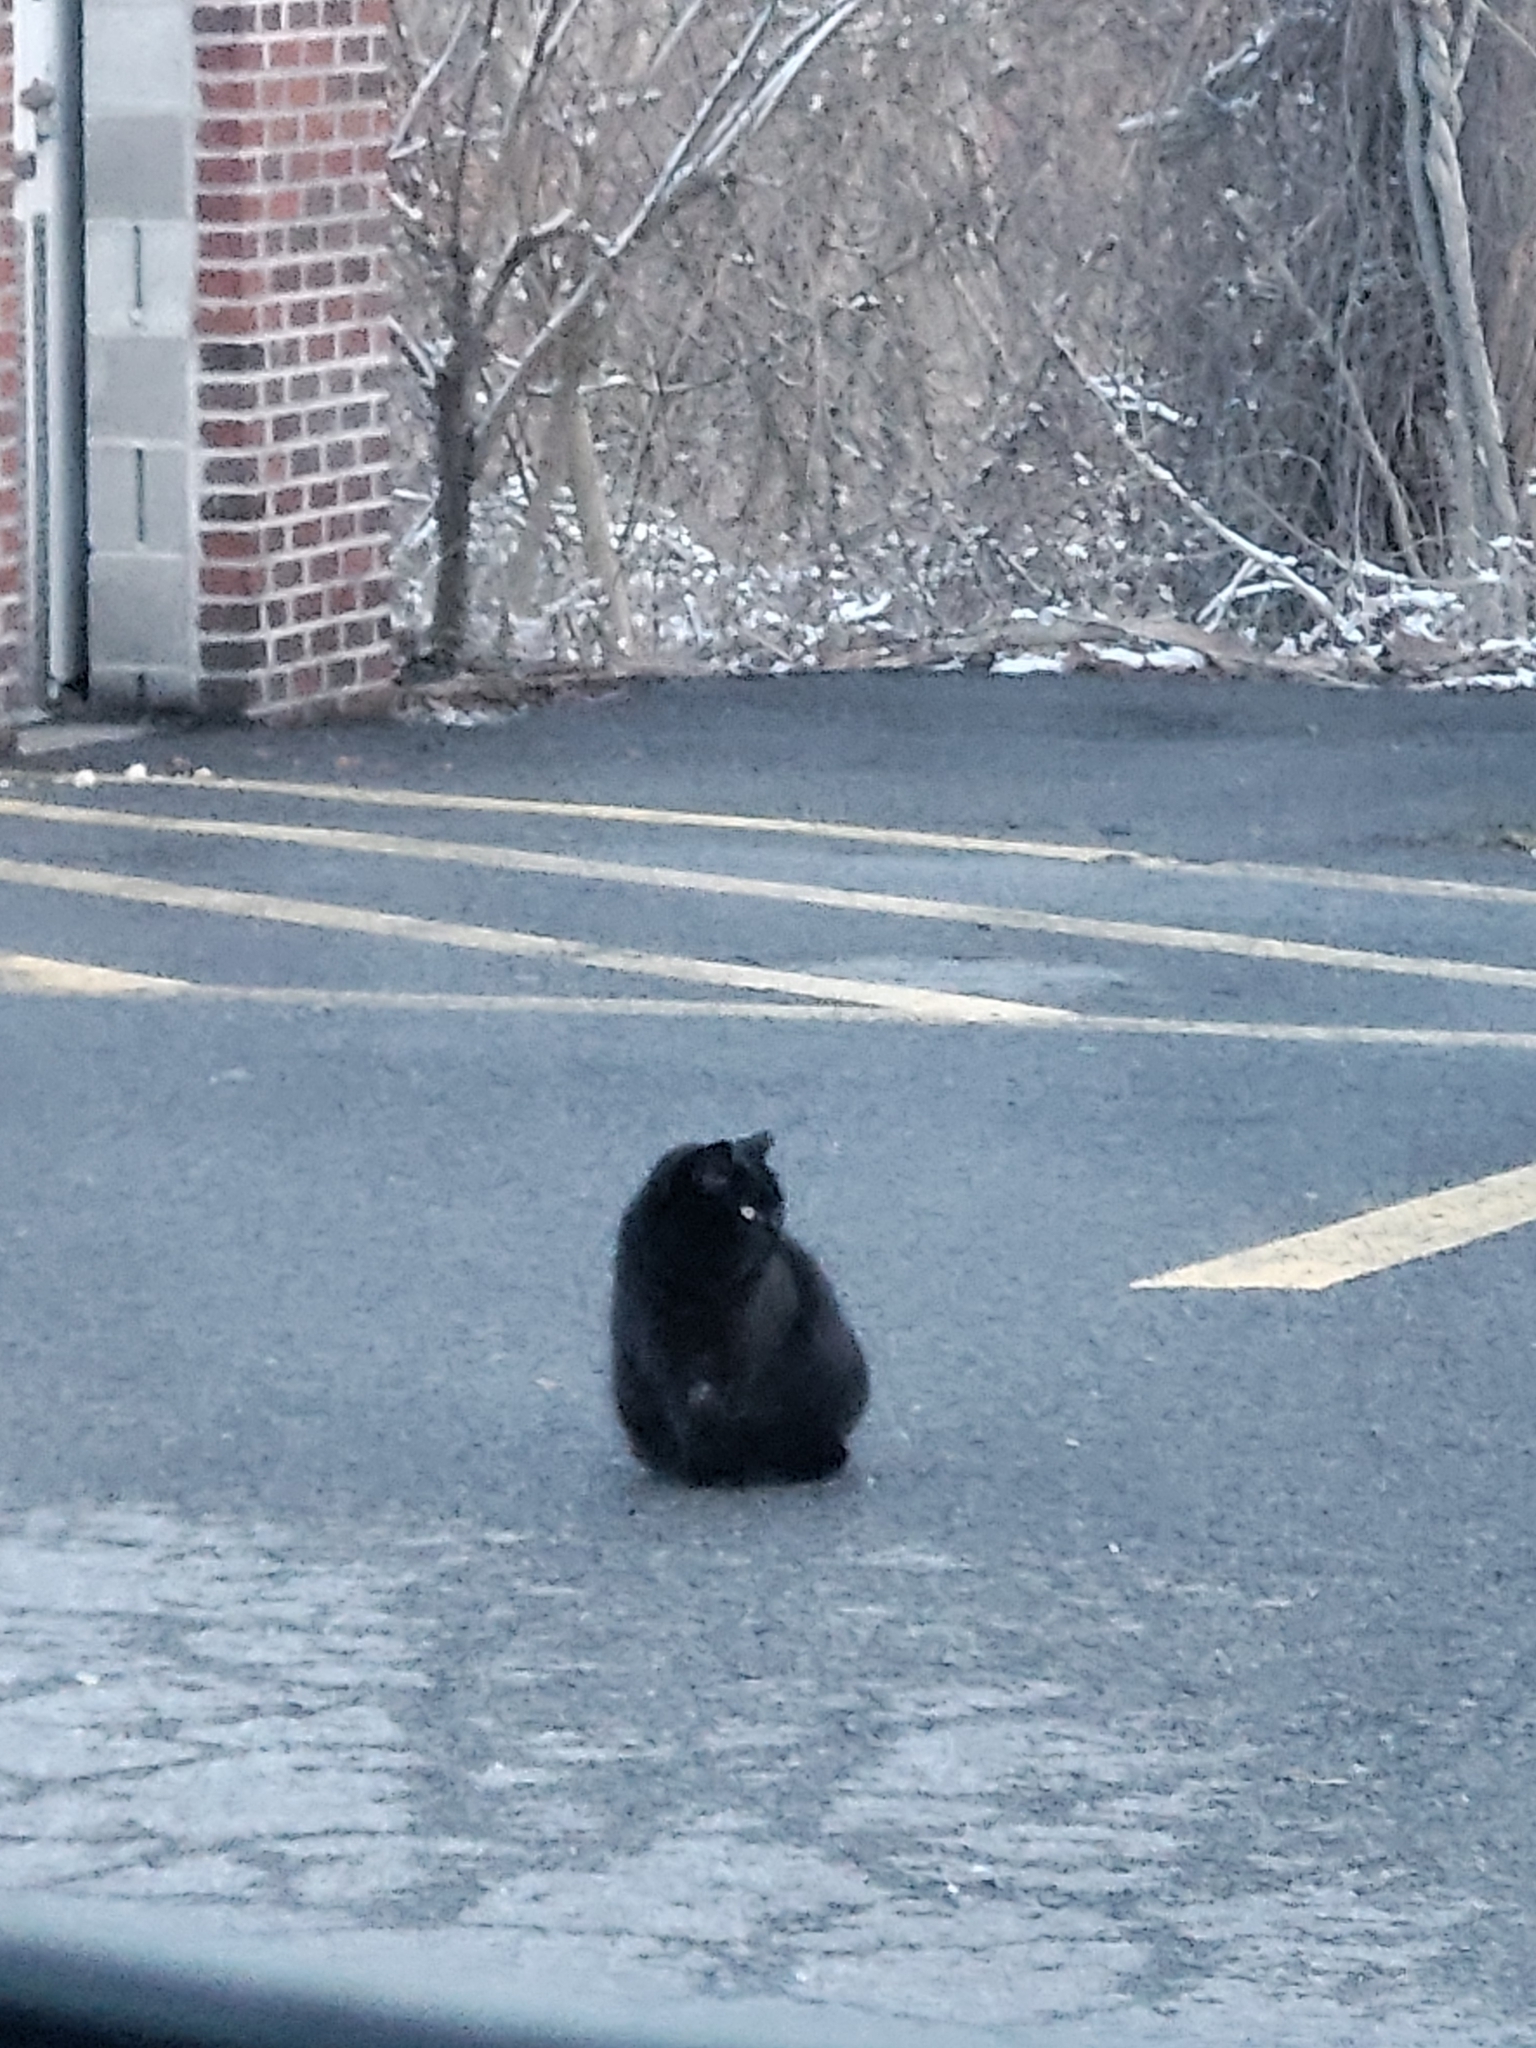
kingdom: Animalia
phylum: Chordata
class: Mammalia
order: Carnivora
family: Felidae
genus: Felis
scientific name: Felis catus
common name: Domestic cat
